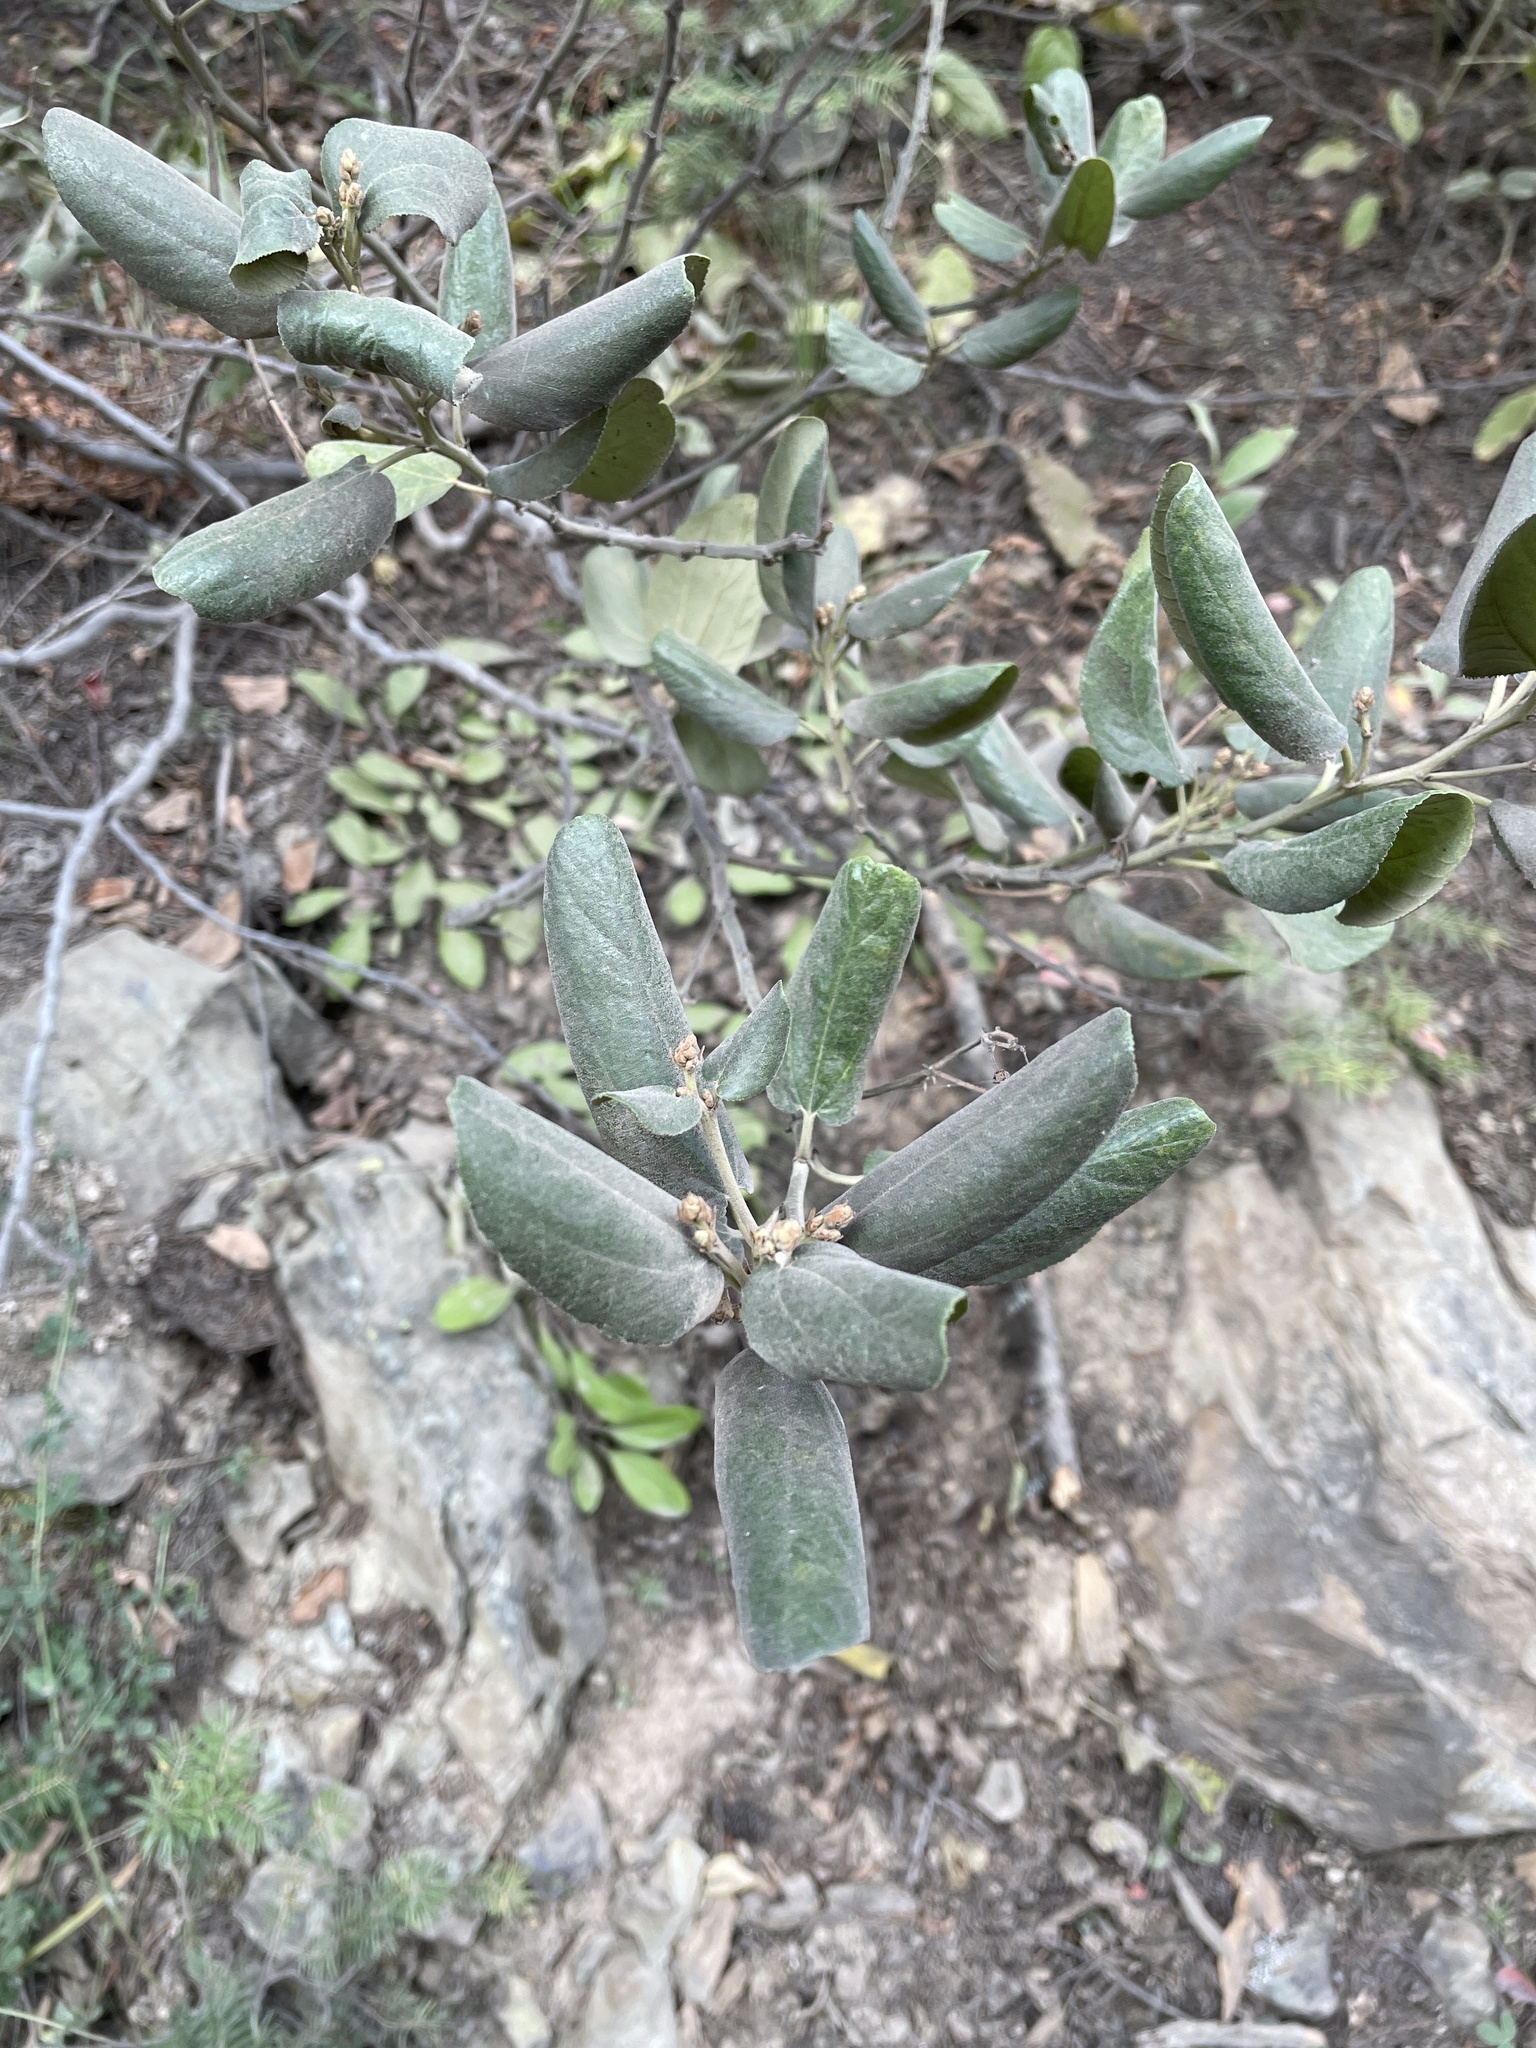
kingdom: Plantae
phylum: Tracheophyta
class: Magnoliopsida
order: Rosales
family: Rhamnaceae
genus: Ceanothus
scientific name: Ceanothus velutinus
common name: Snowbrush
